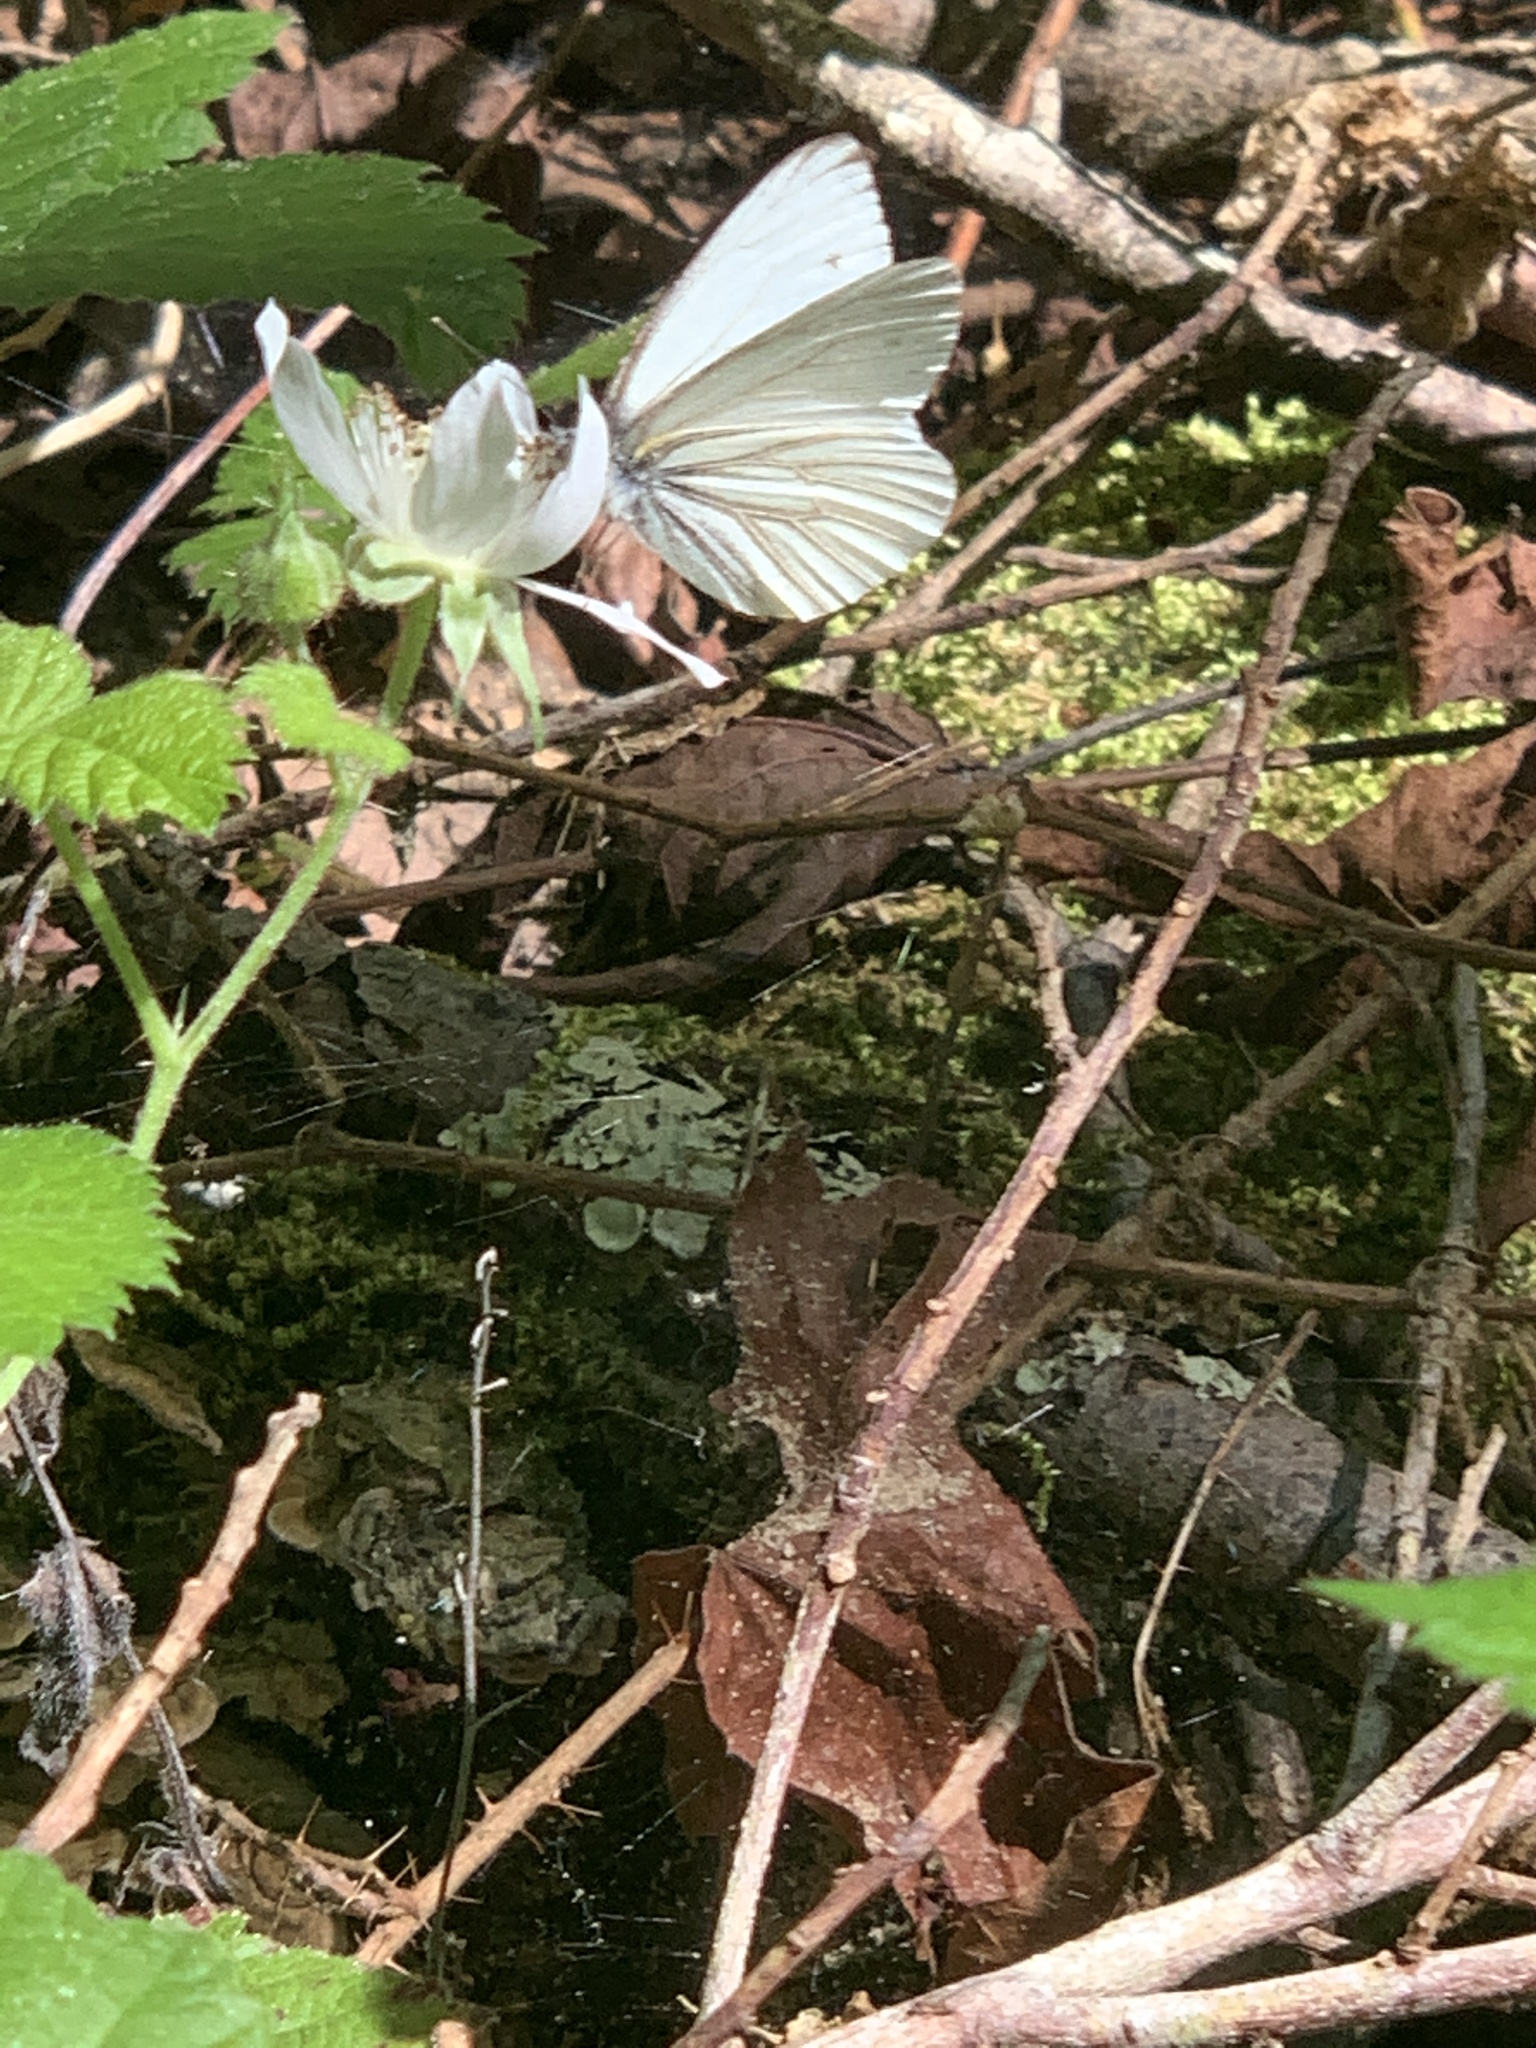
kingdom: Animalia
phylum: Arthropoda
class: Insecta
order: Lepidoptera
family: Pieridae
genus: Pieris
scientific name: Pieris marginalis
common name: Margined white
